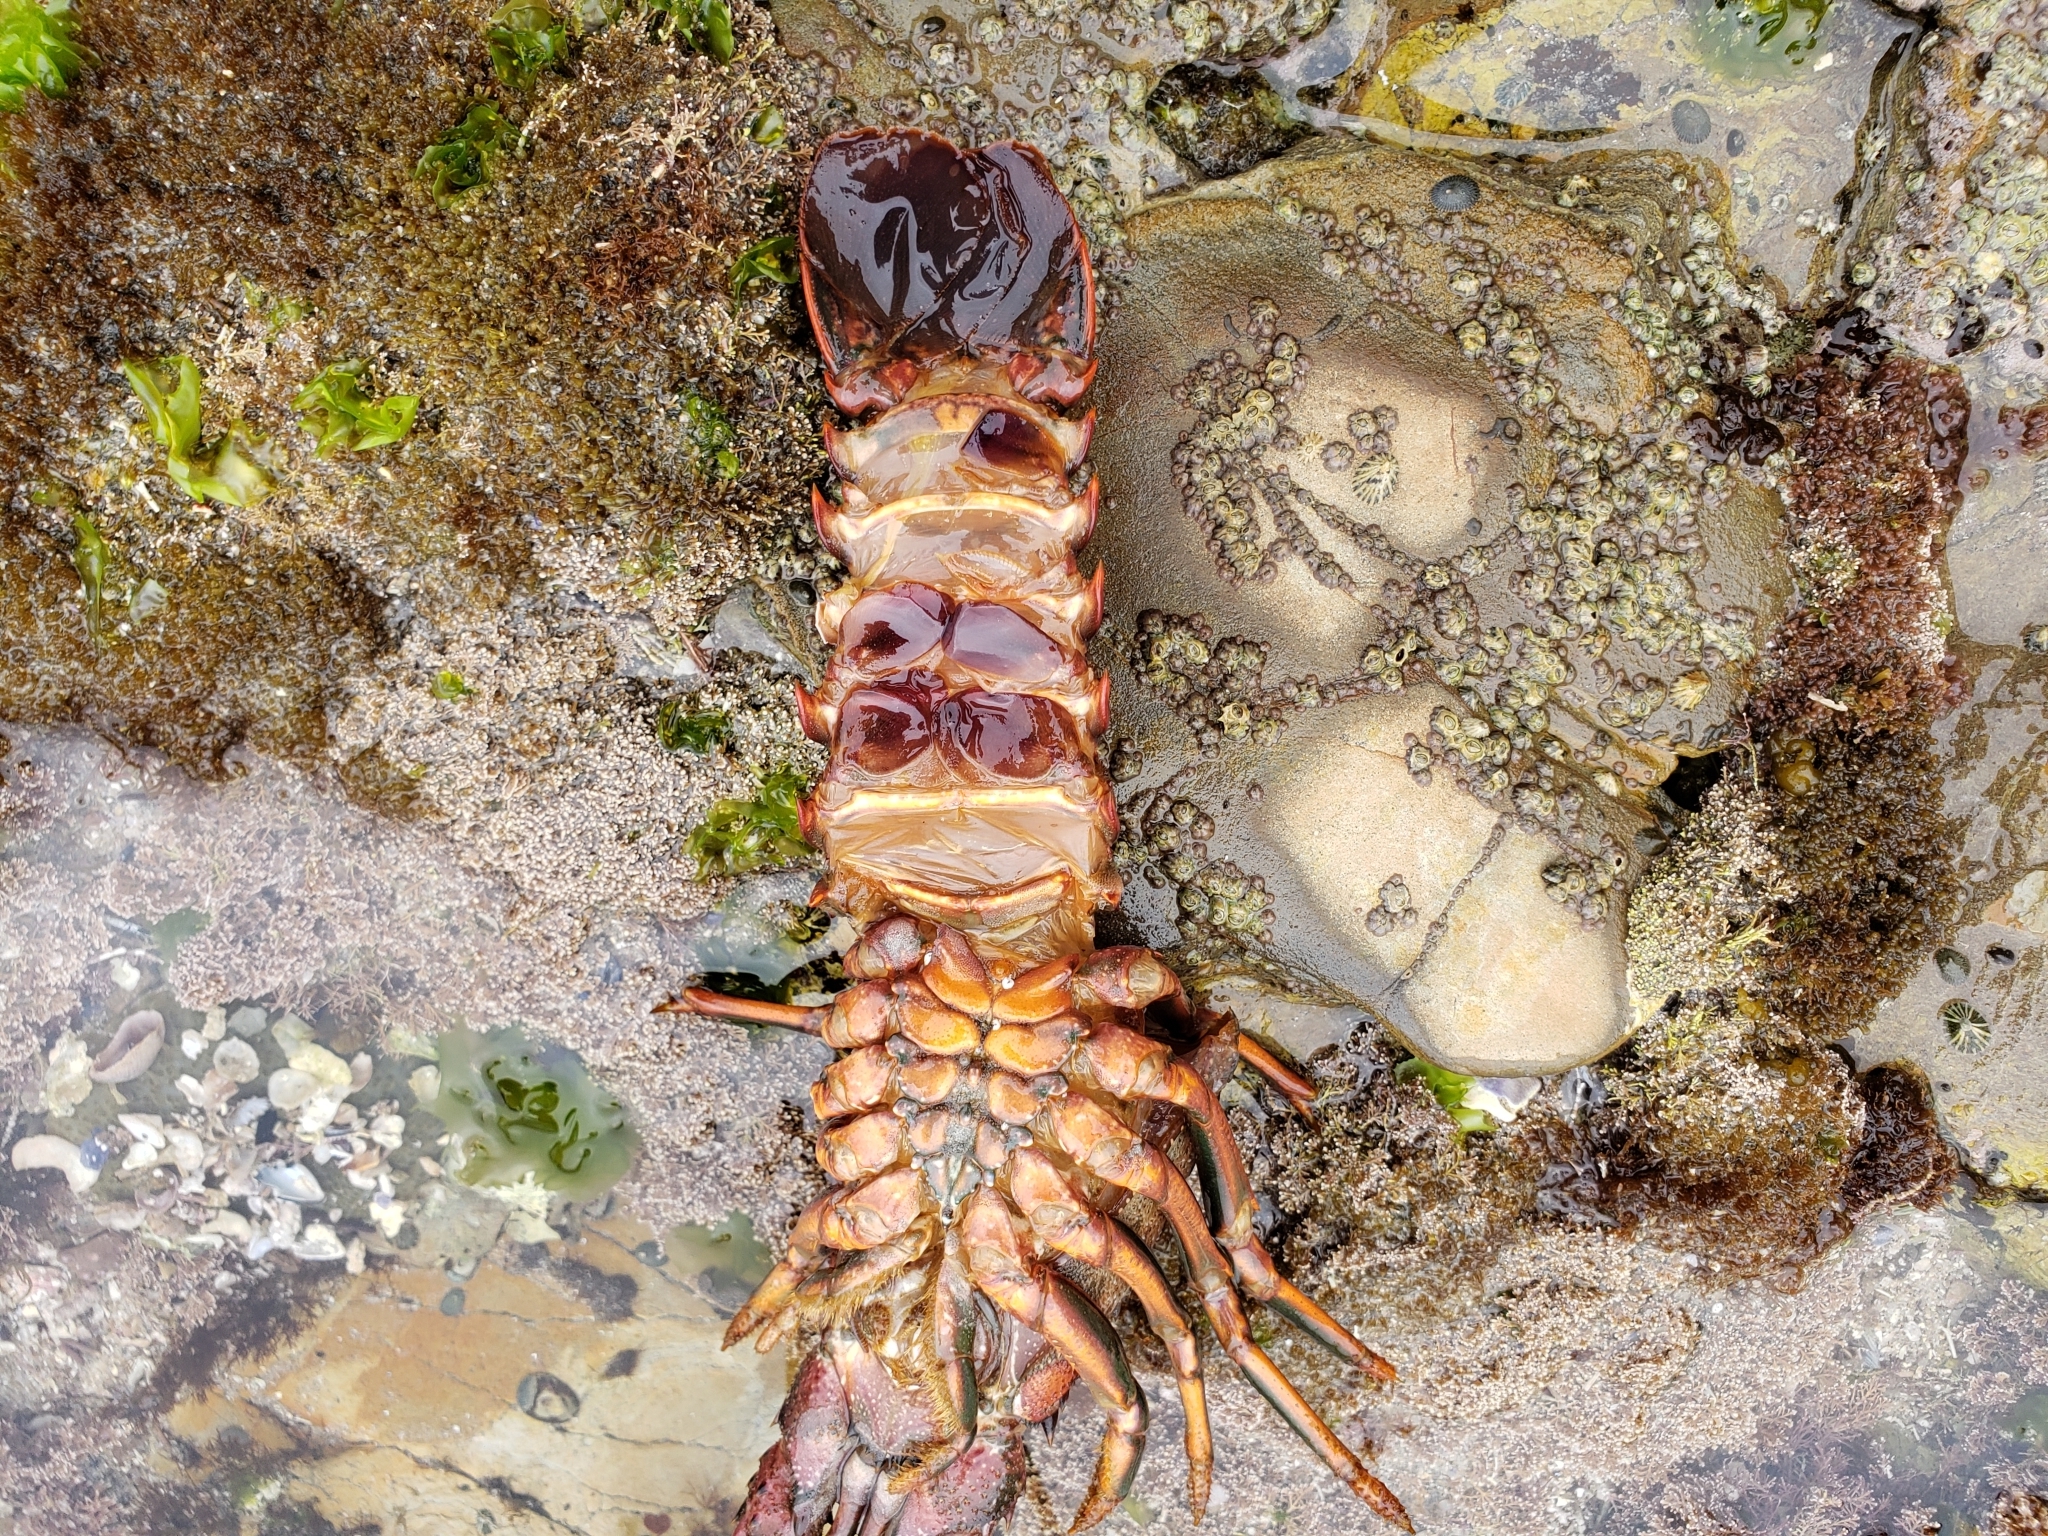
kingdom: Animalia
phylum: Arthropoda
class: Malacostraca
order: Decapoda
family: Palinuridae
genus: Panulirus
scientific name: Panulirus interruptus
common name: California spiny lobster
